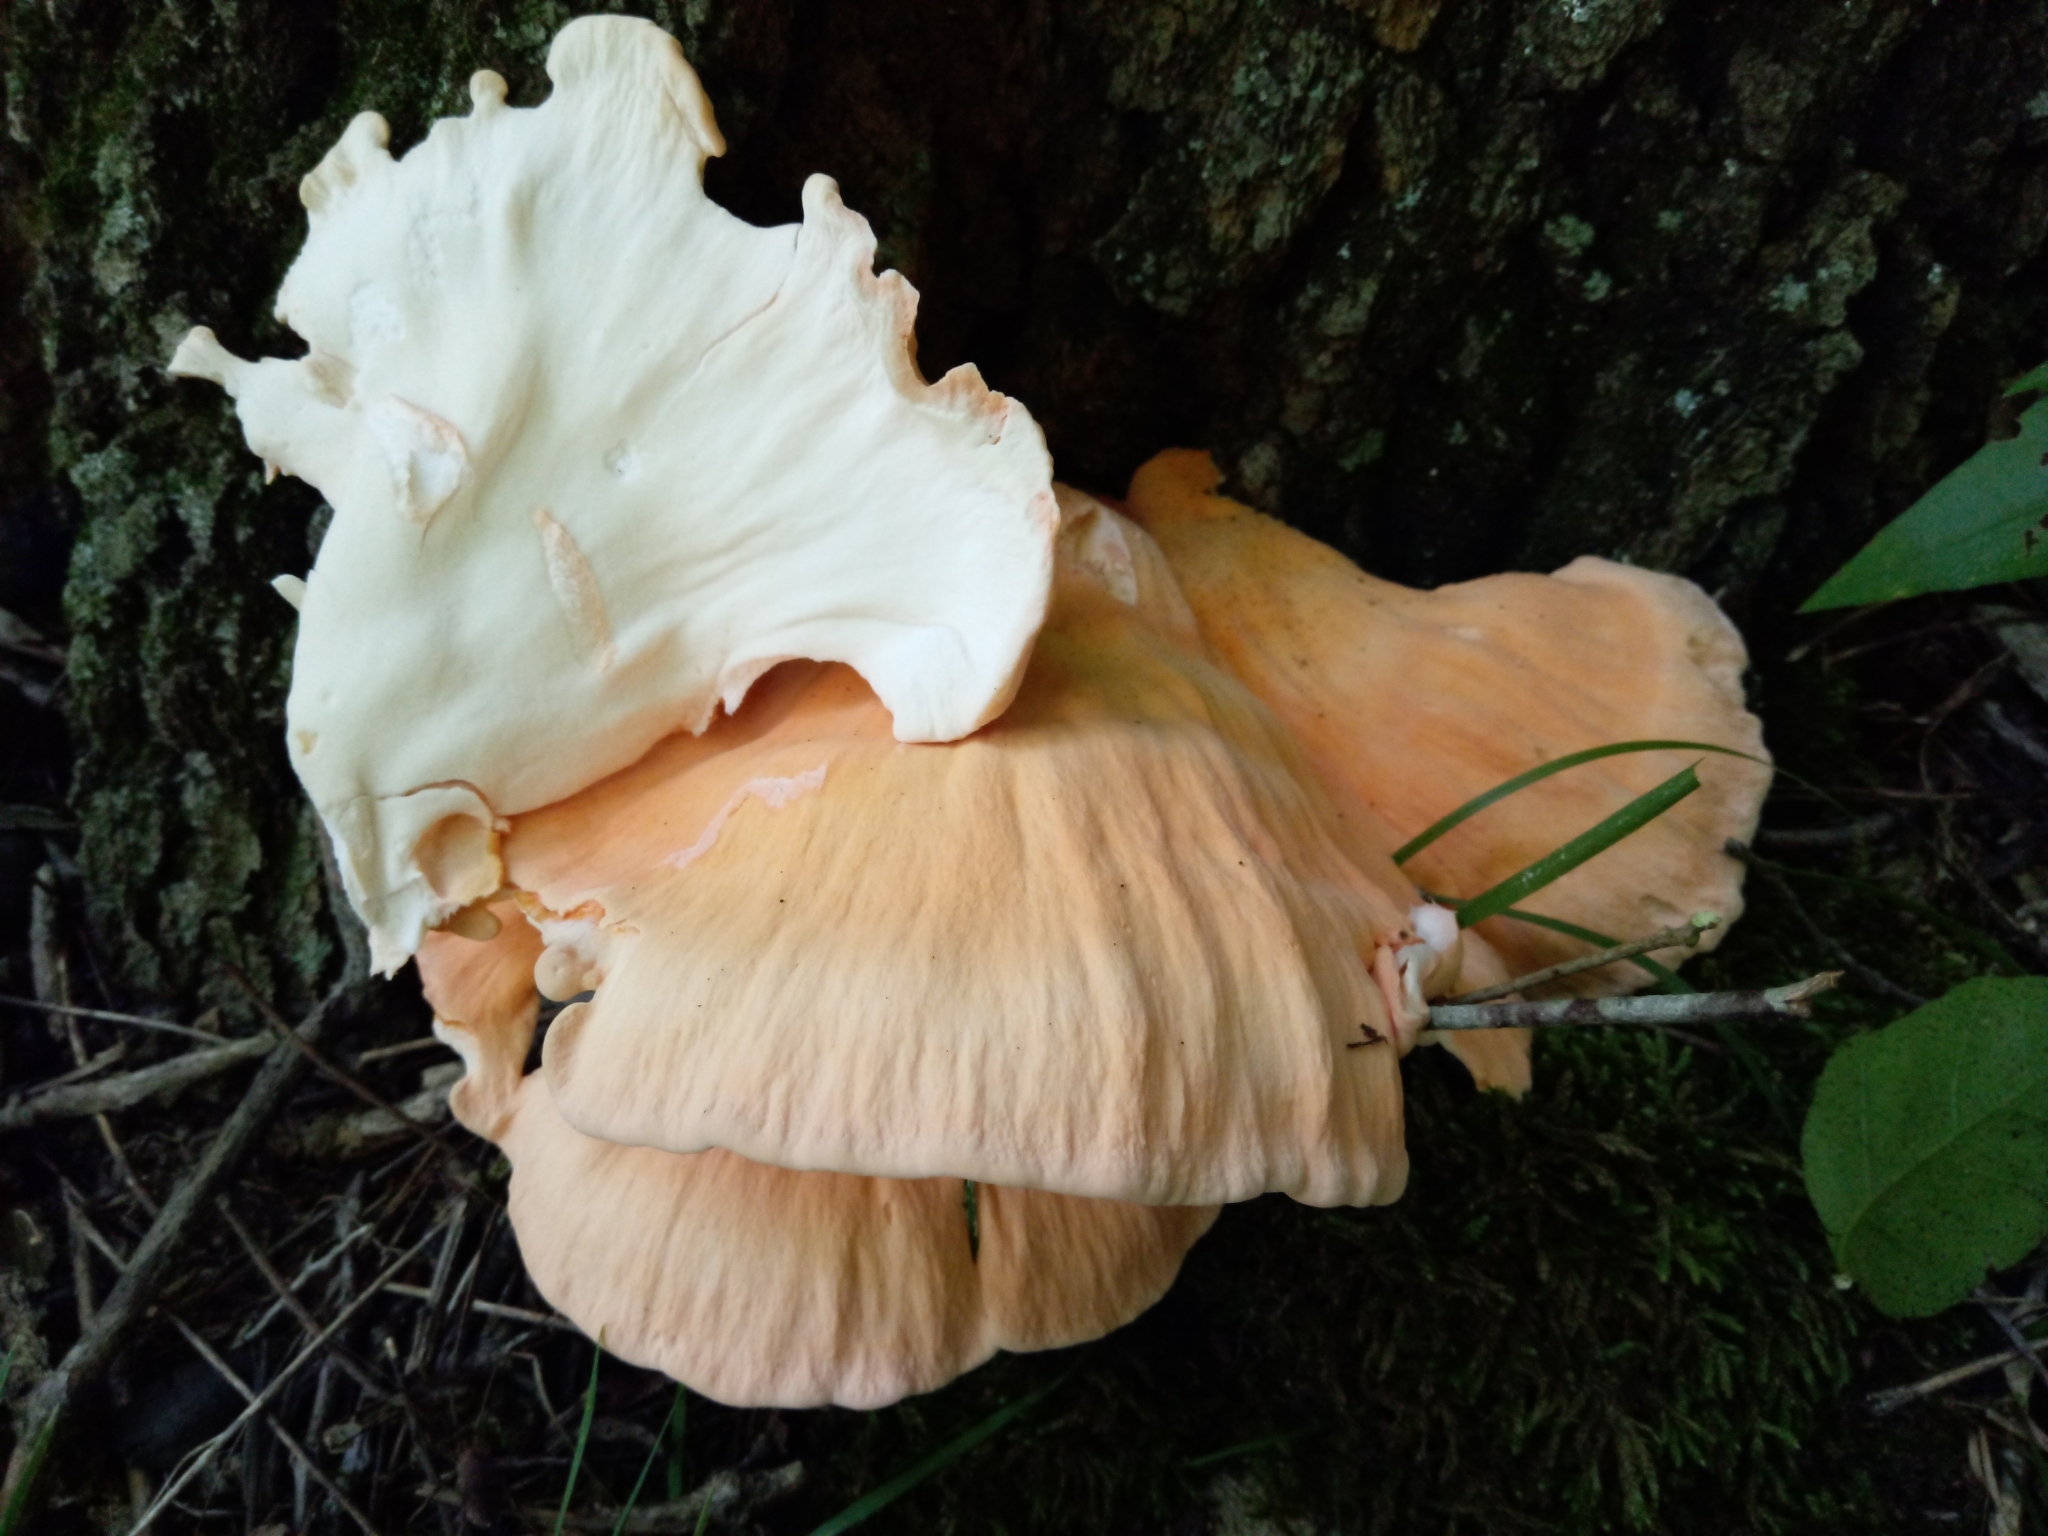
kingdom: Fungi
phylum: Basidiomycota
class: Agaricomycetes
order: Polyporales
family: Laetiporaceae
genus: Laetiporus
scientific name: Laetiporus sulphureus
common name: Chicken of the woods
